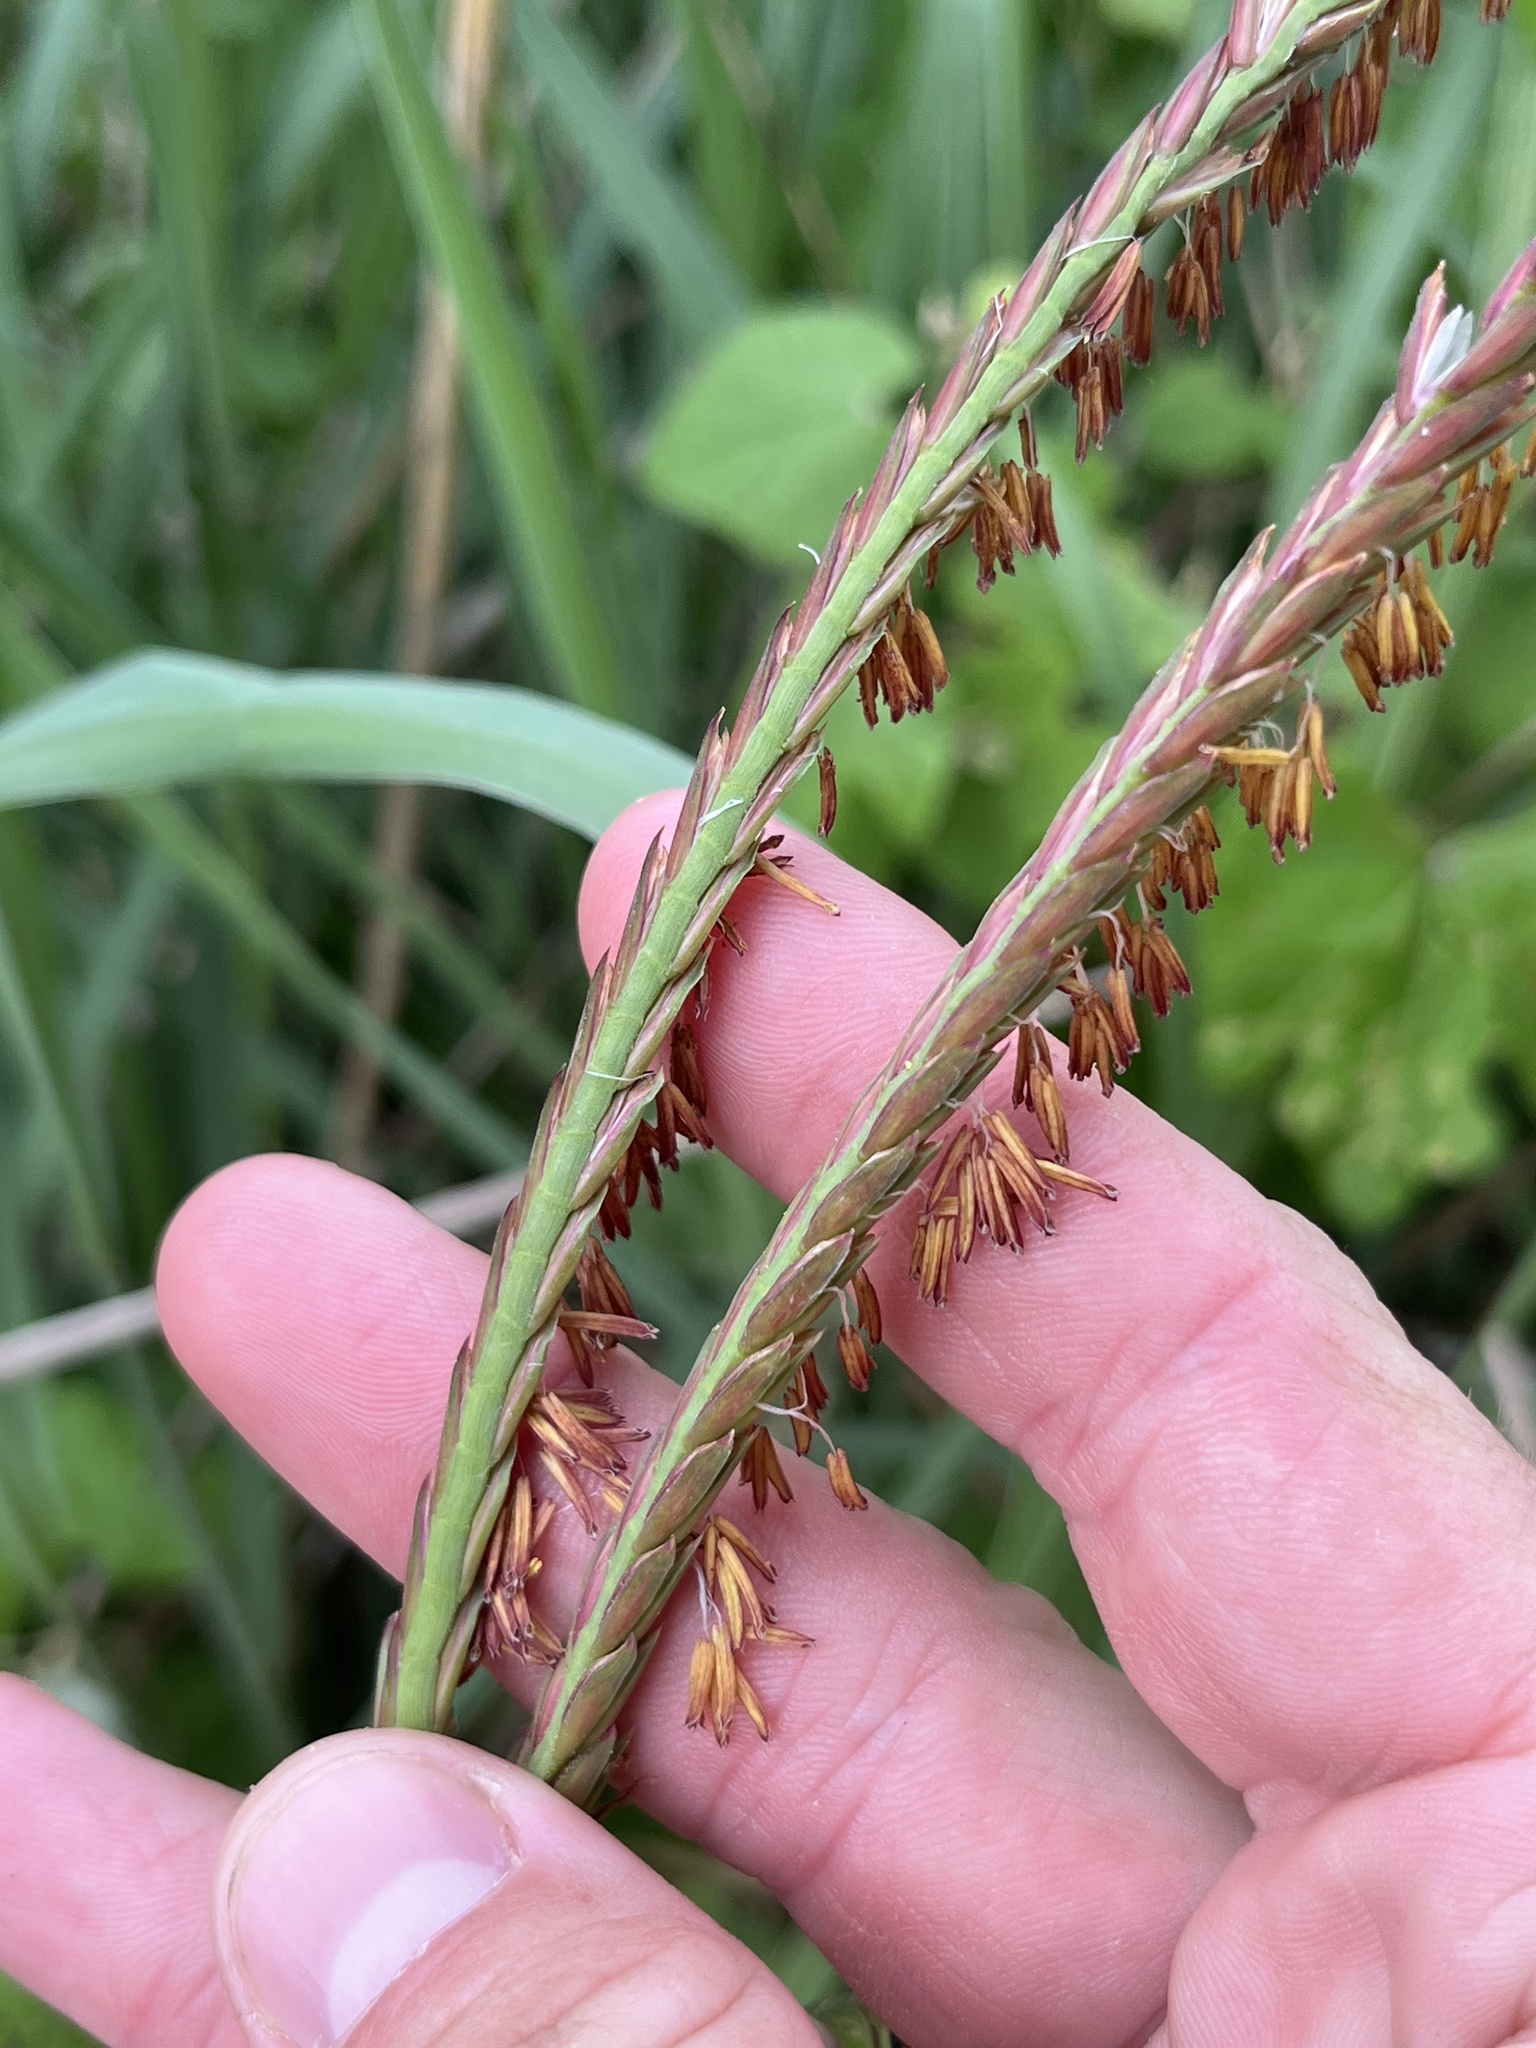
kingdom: Plantae
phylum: Tracheophyta
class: Liliopsida
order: Poales
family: Poaceae
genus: Tripsacum
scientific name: Tripsacum dactyloides
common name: Buffalo-grass
